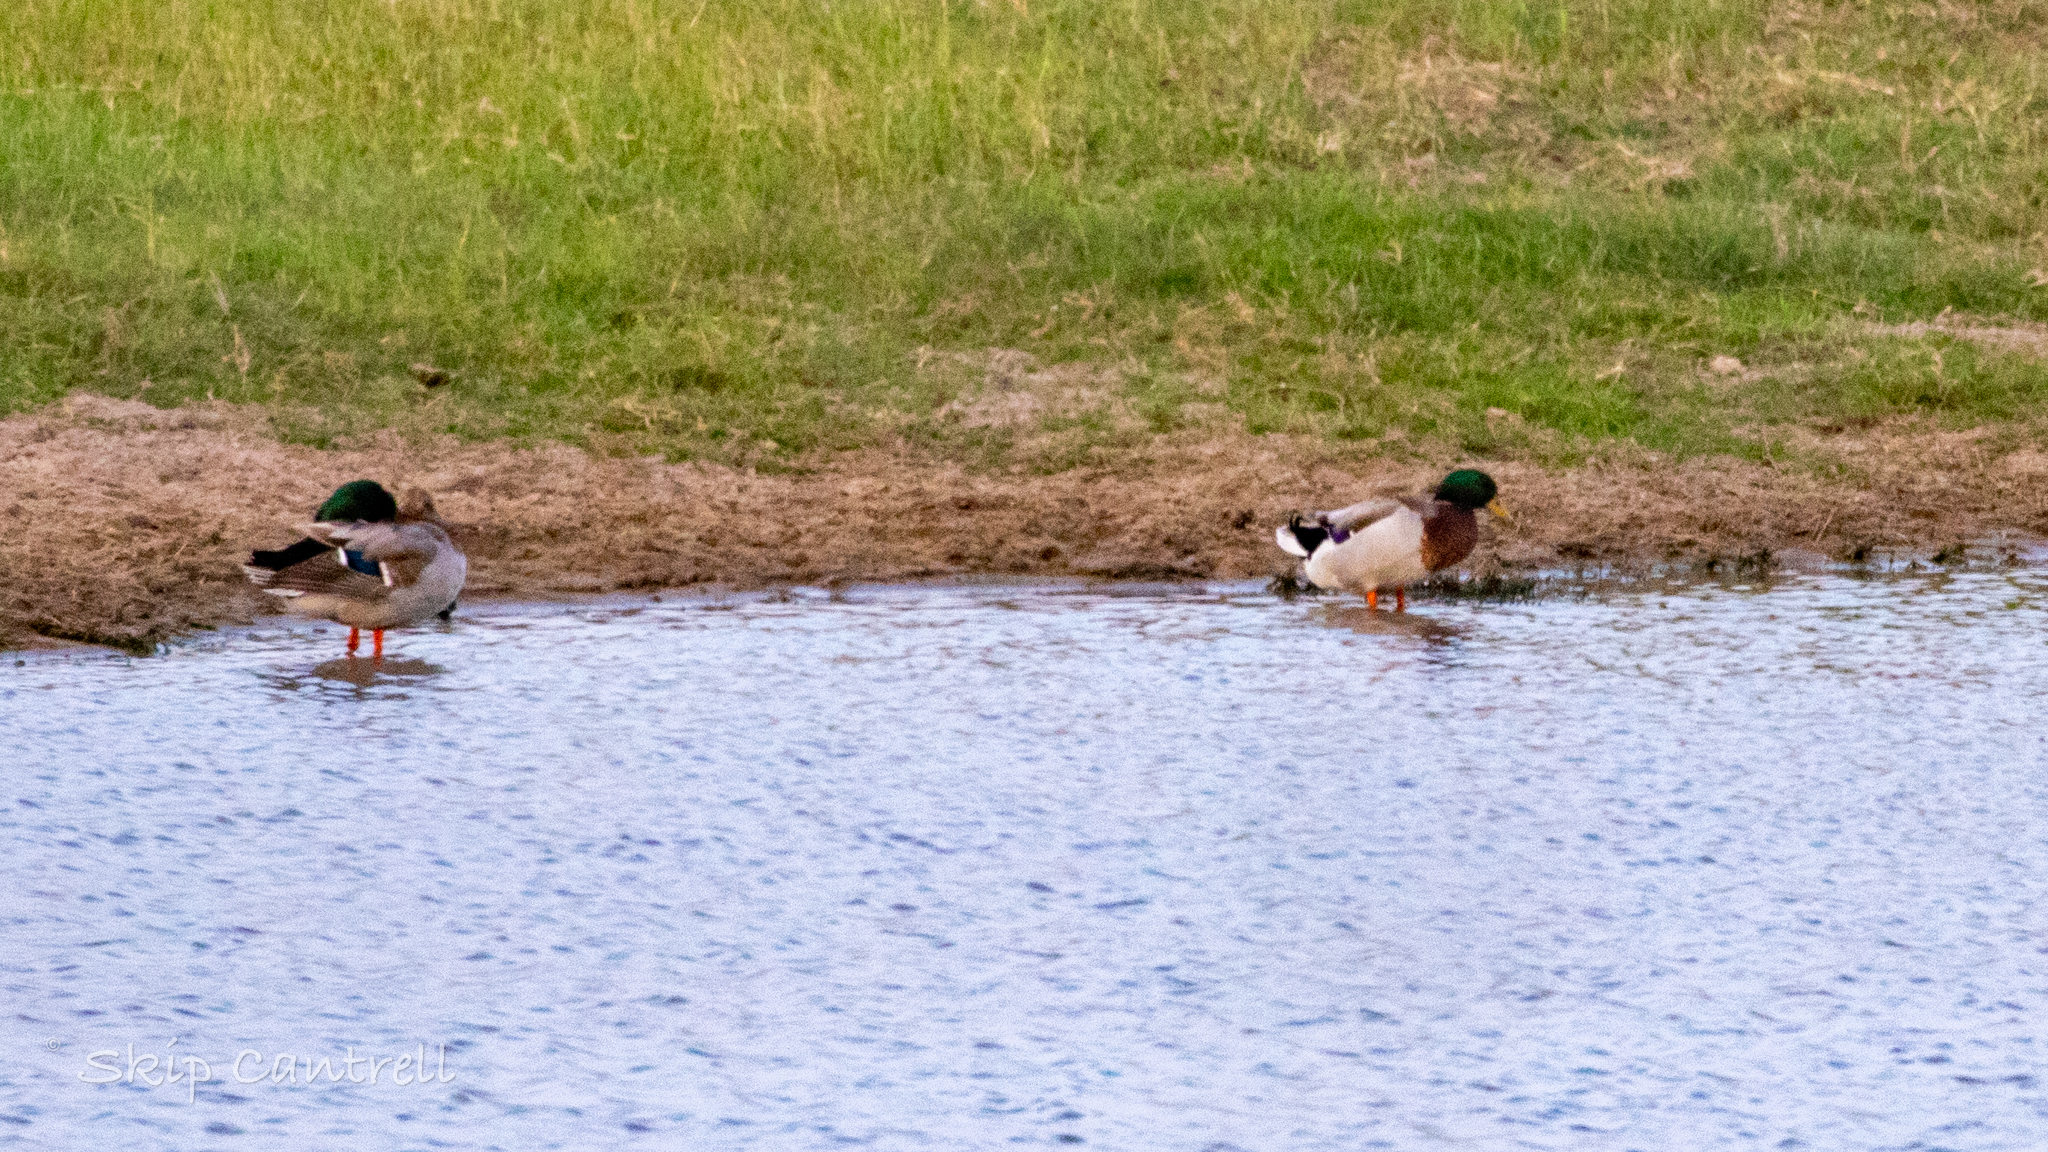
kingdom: Animalia
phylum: Chordata
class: Aves
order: Anseriformes
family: Anatidae
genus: Anas
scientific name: Anas platyrhynchos
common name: Mallard
